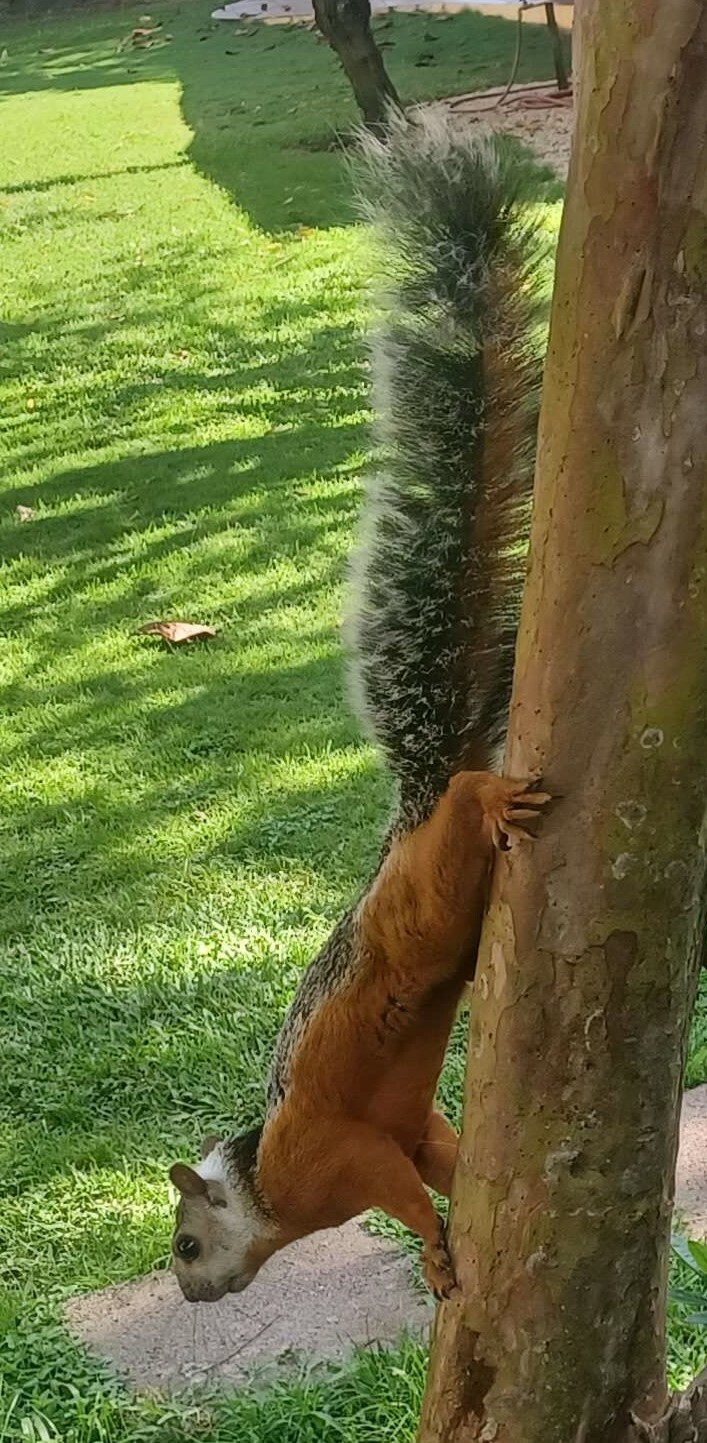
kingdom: Animalia
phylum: Chordata
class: Mammalia
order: Rodentia
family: Sciuridae
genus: Sciurus
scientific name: Sciurus variegatoides
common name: Variegated squirrel
